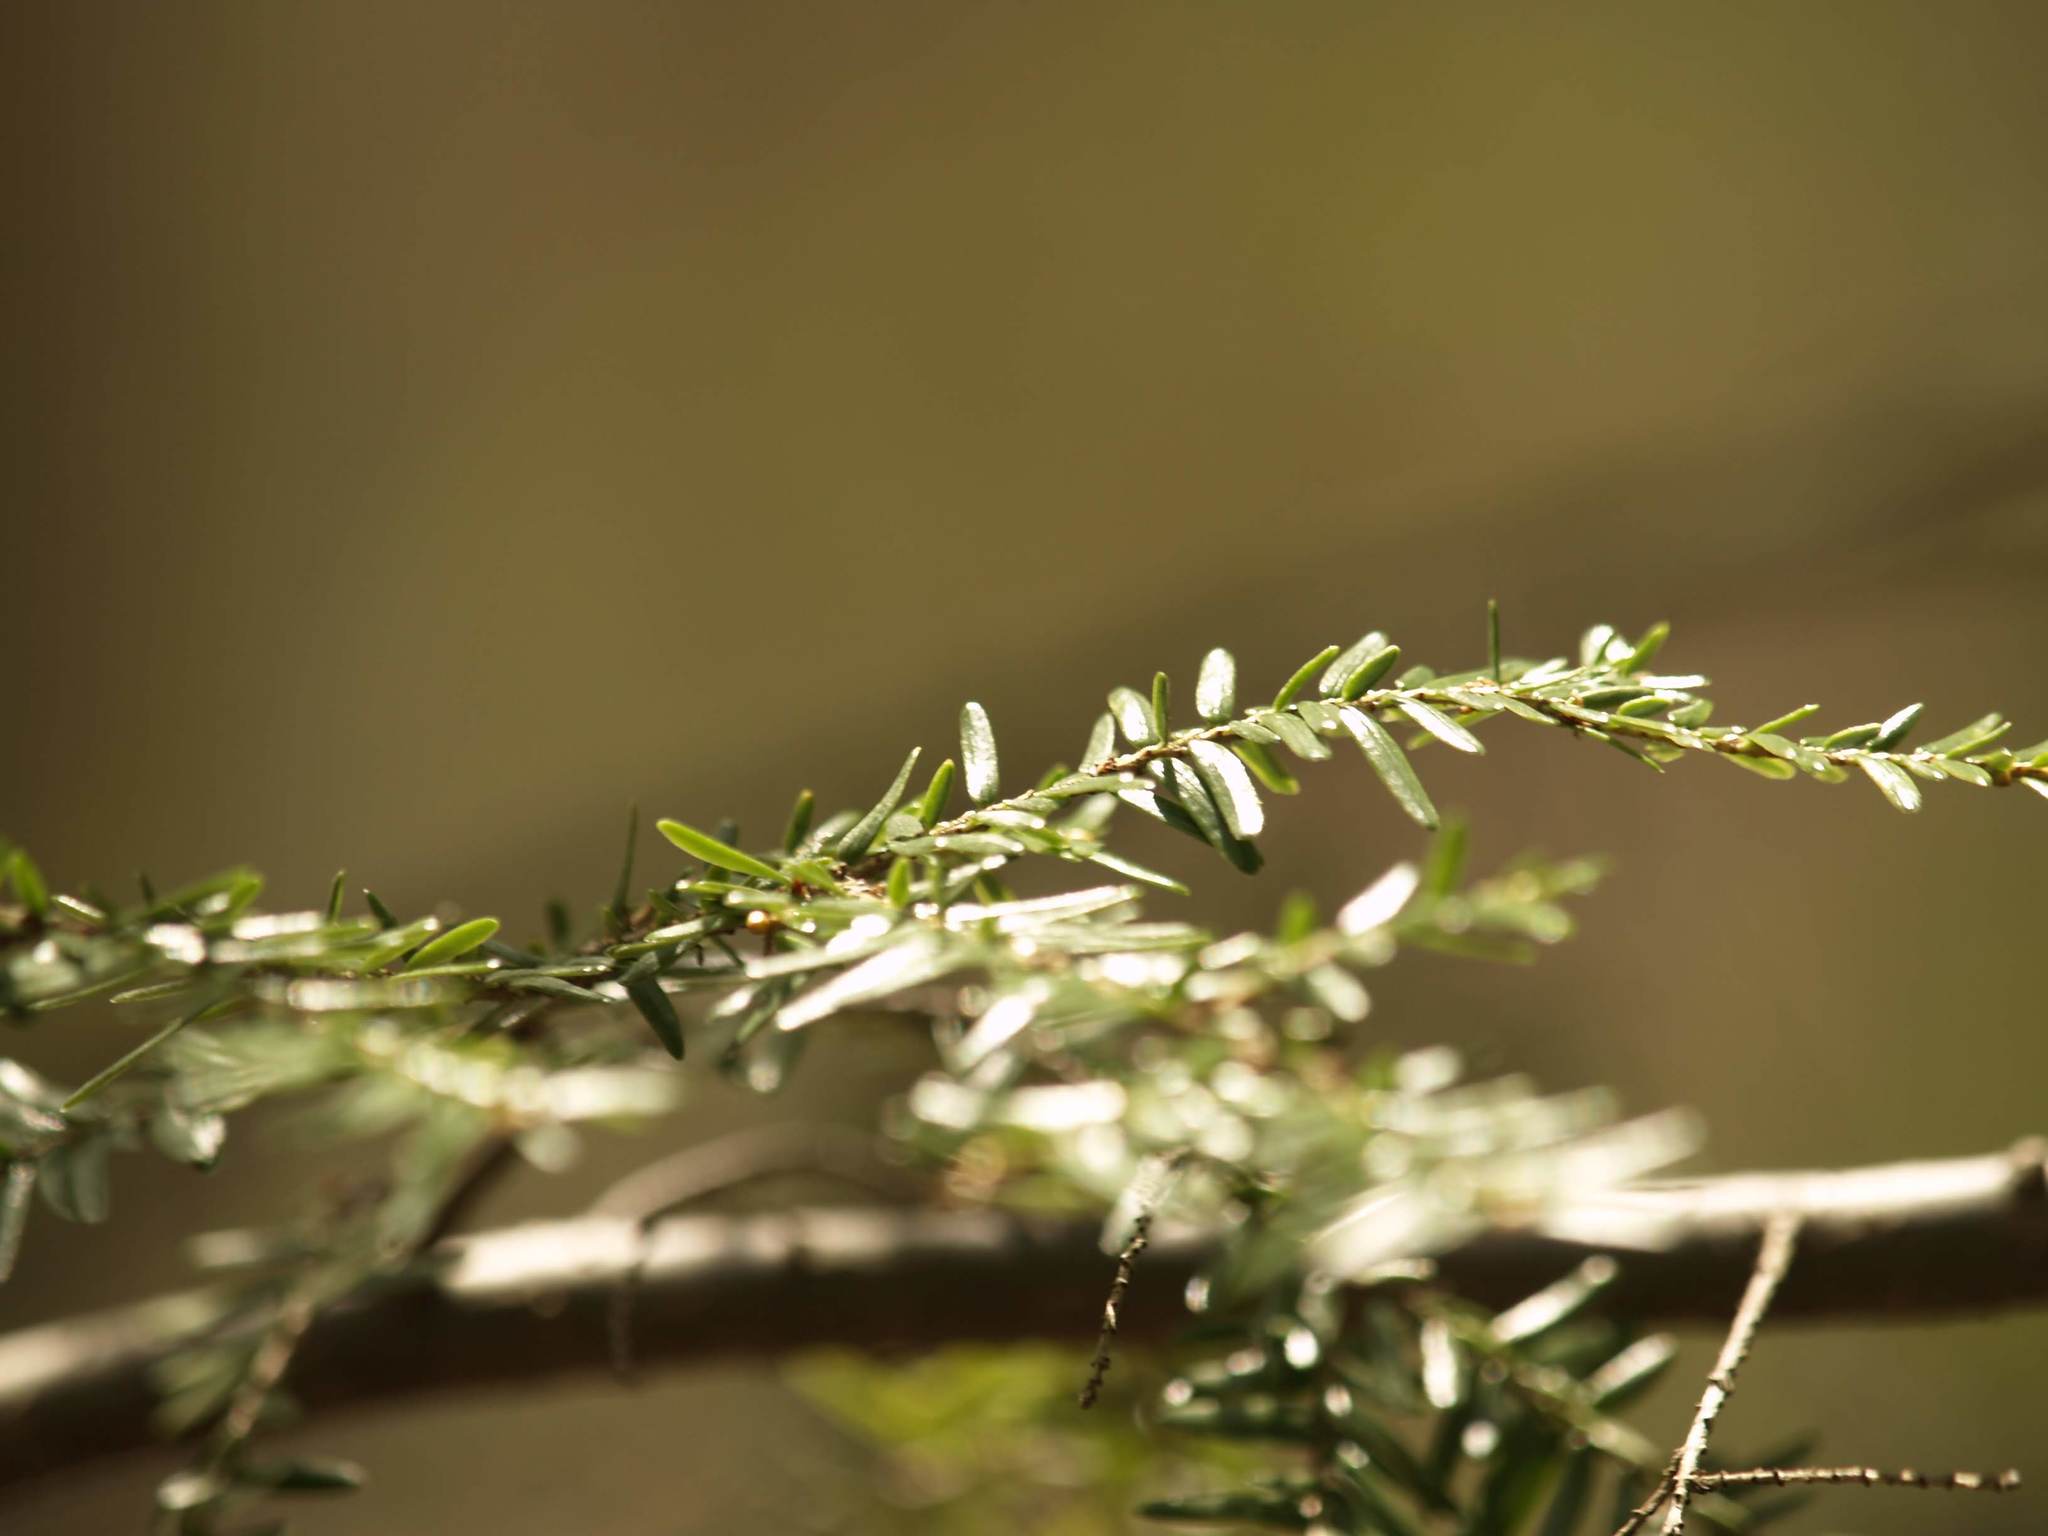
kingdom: Plantae
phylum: Tracheophyta
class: Pinopsida
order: Pinales
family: Pinaceae
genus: Tsuga
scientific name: Tsuga canadensis
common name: Eastern hemlock
